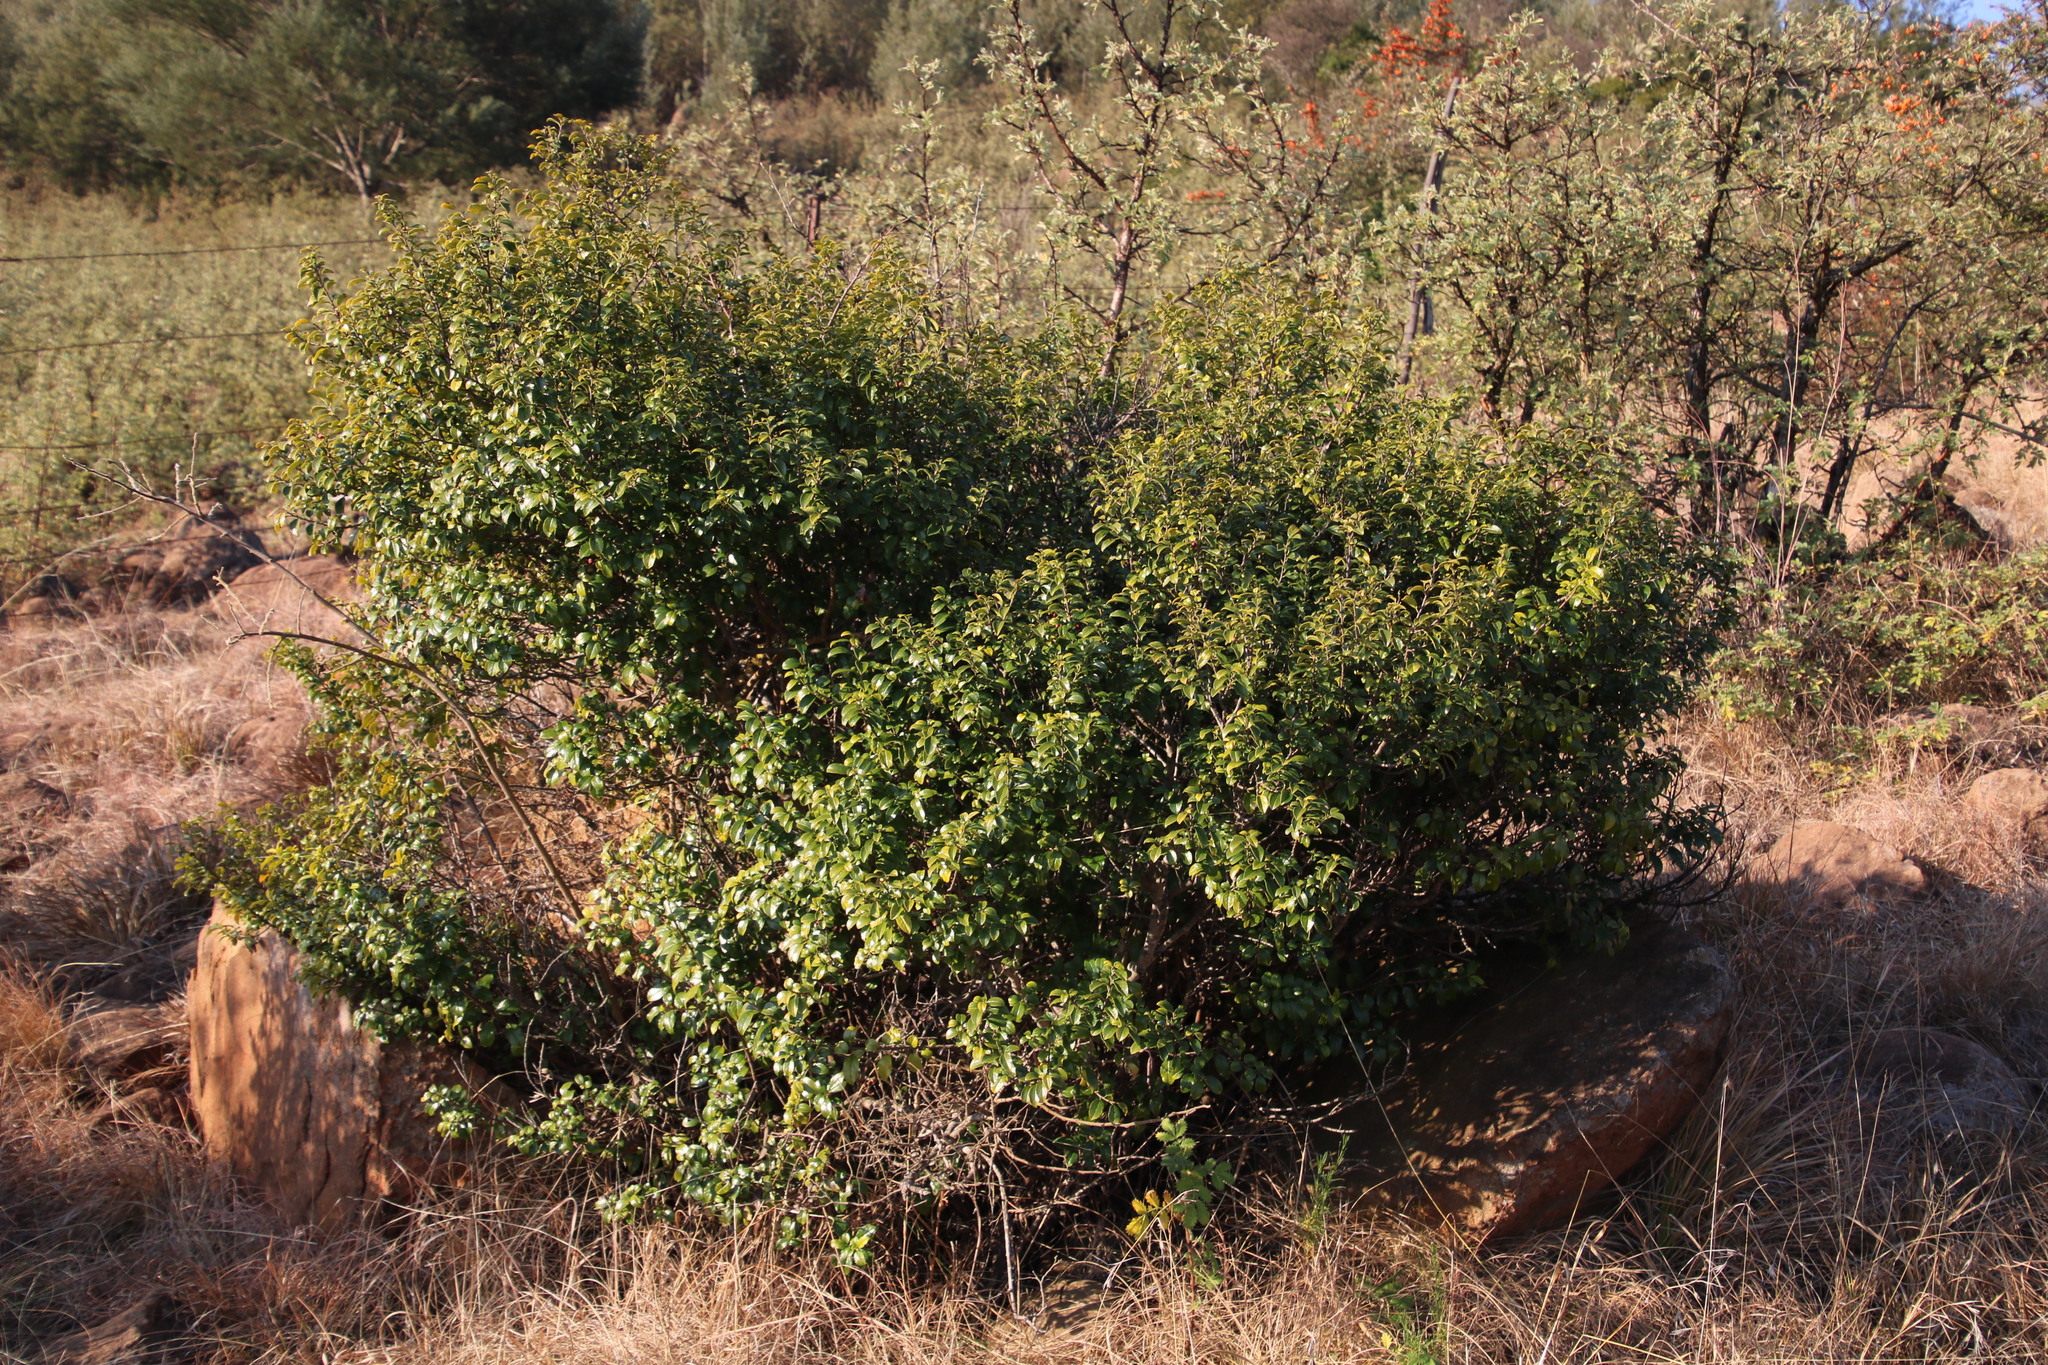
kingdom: Plantae
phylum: Tracheophyta
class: Magnoliopsida
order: Rosales
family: Rhamnaceae
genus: Rhamnus
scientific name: Rhamnus prinoides
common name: Dogwood
